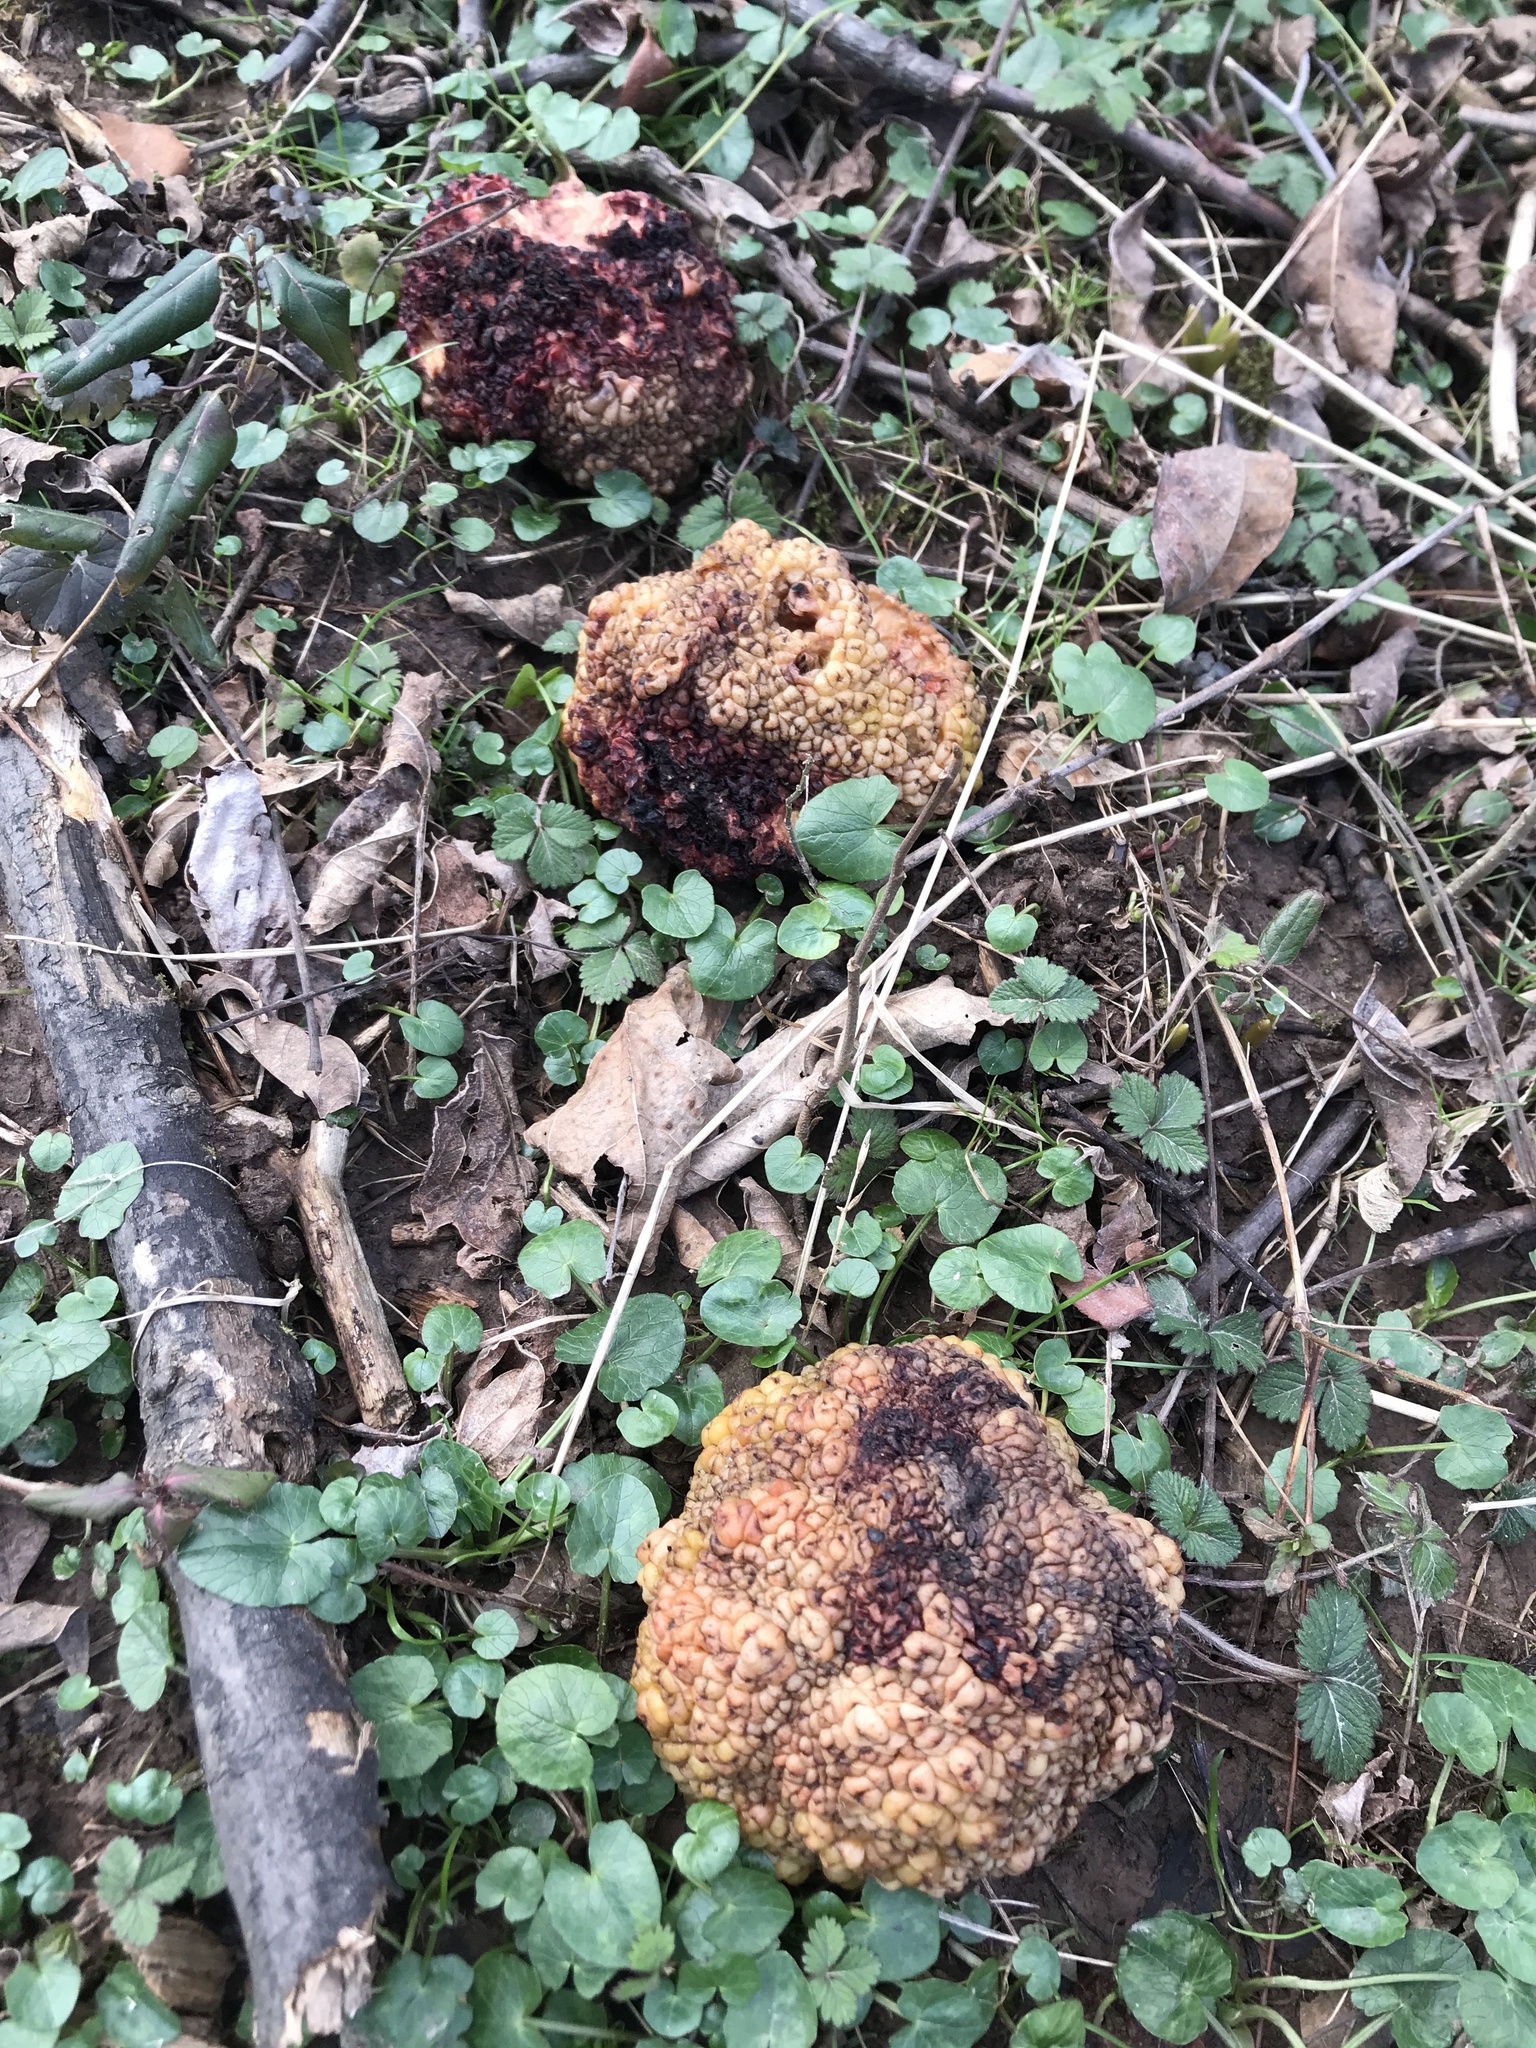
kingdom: Plantae
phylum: Tracheophyta
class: Magnoliopsida
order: Rosales
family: Moraceae
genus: Maclura
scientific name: Maclura pomifera
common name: Osage-orange
